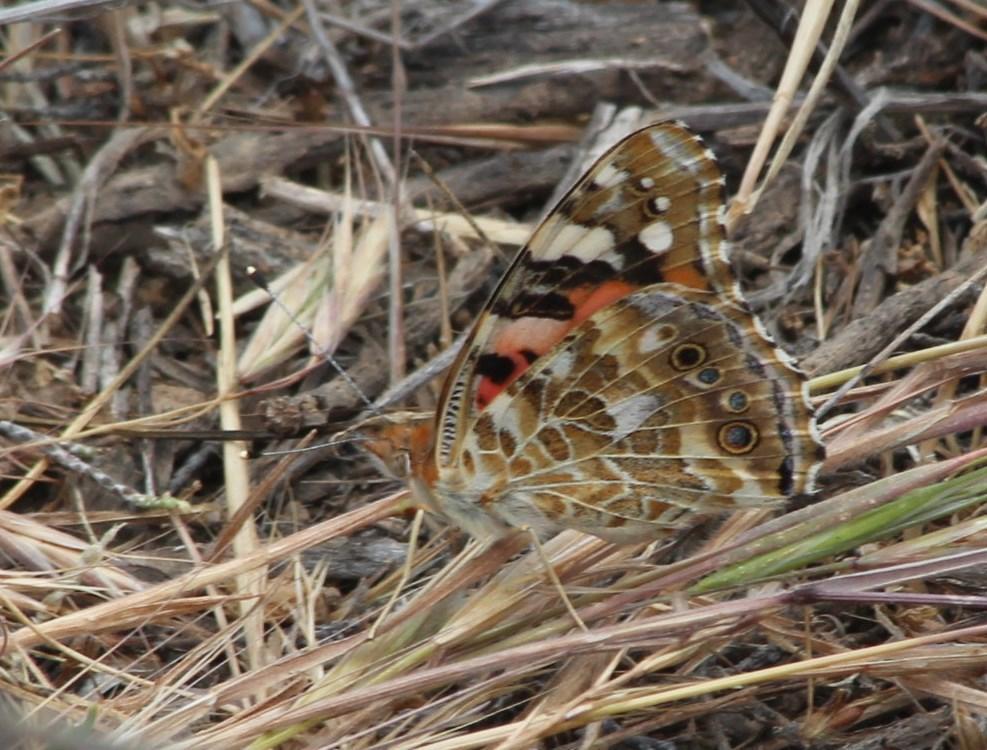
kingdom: Animalia
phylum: Arthropoda
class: Insecta
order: Lepidoptera
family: Nymphalidae
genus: Vanessa
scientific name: Vanessa cardui
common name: Painted lady
